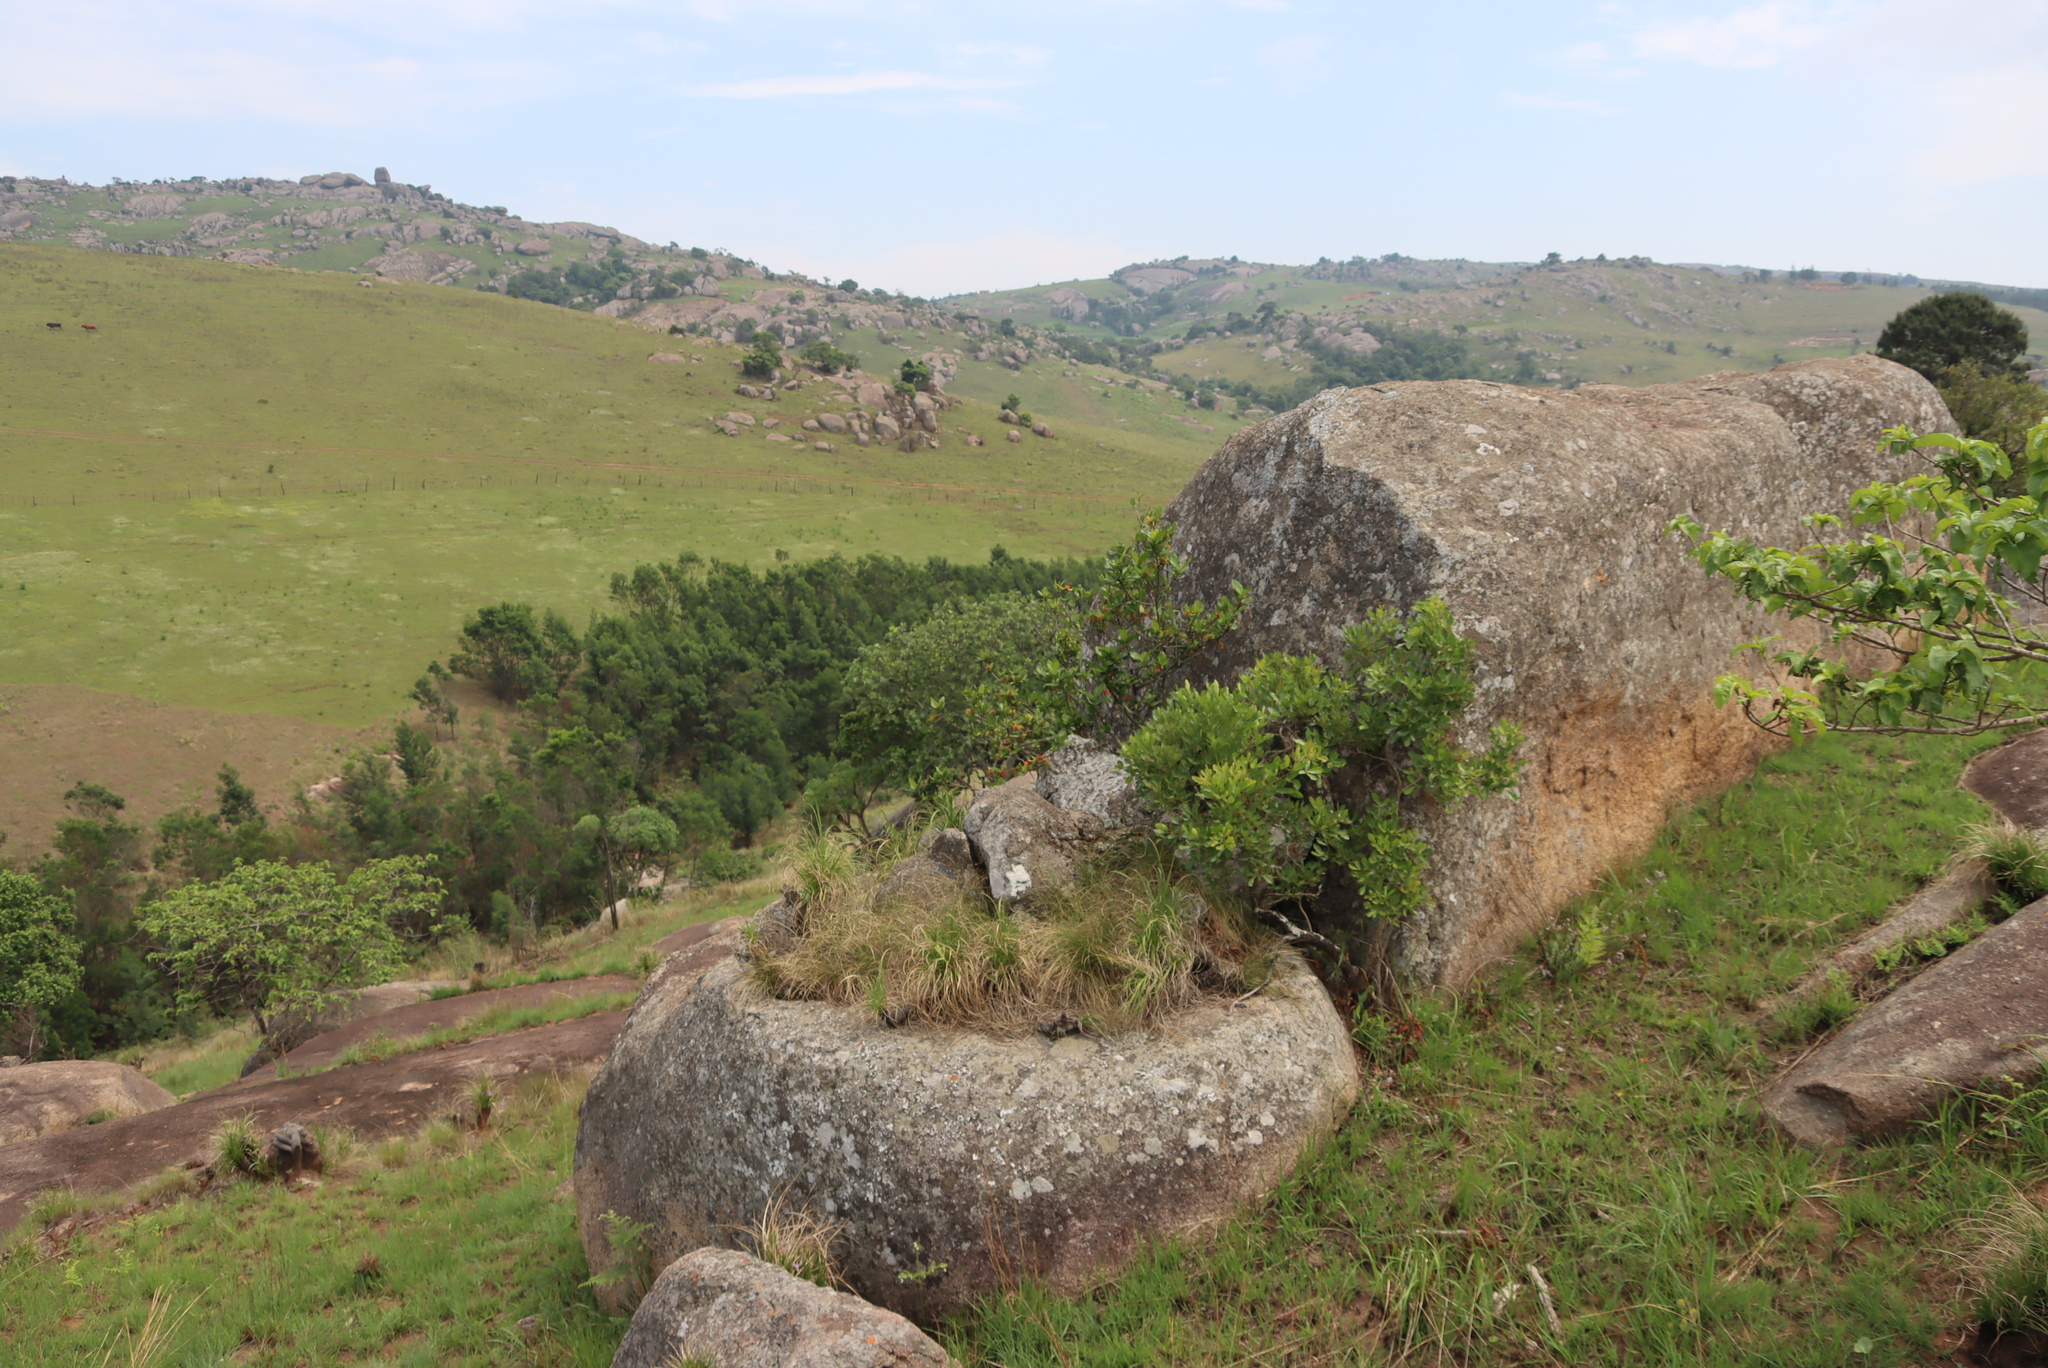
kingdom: Plantae
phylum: Tracheophyta
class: Magnoliopsida
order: Gentianales
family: Rubiaceae
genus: Burchellia
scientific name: Burchellia bubalina
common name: Wild pomegranate
